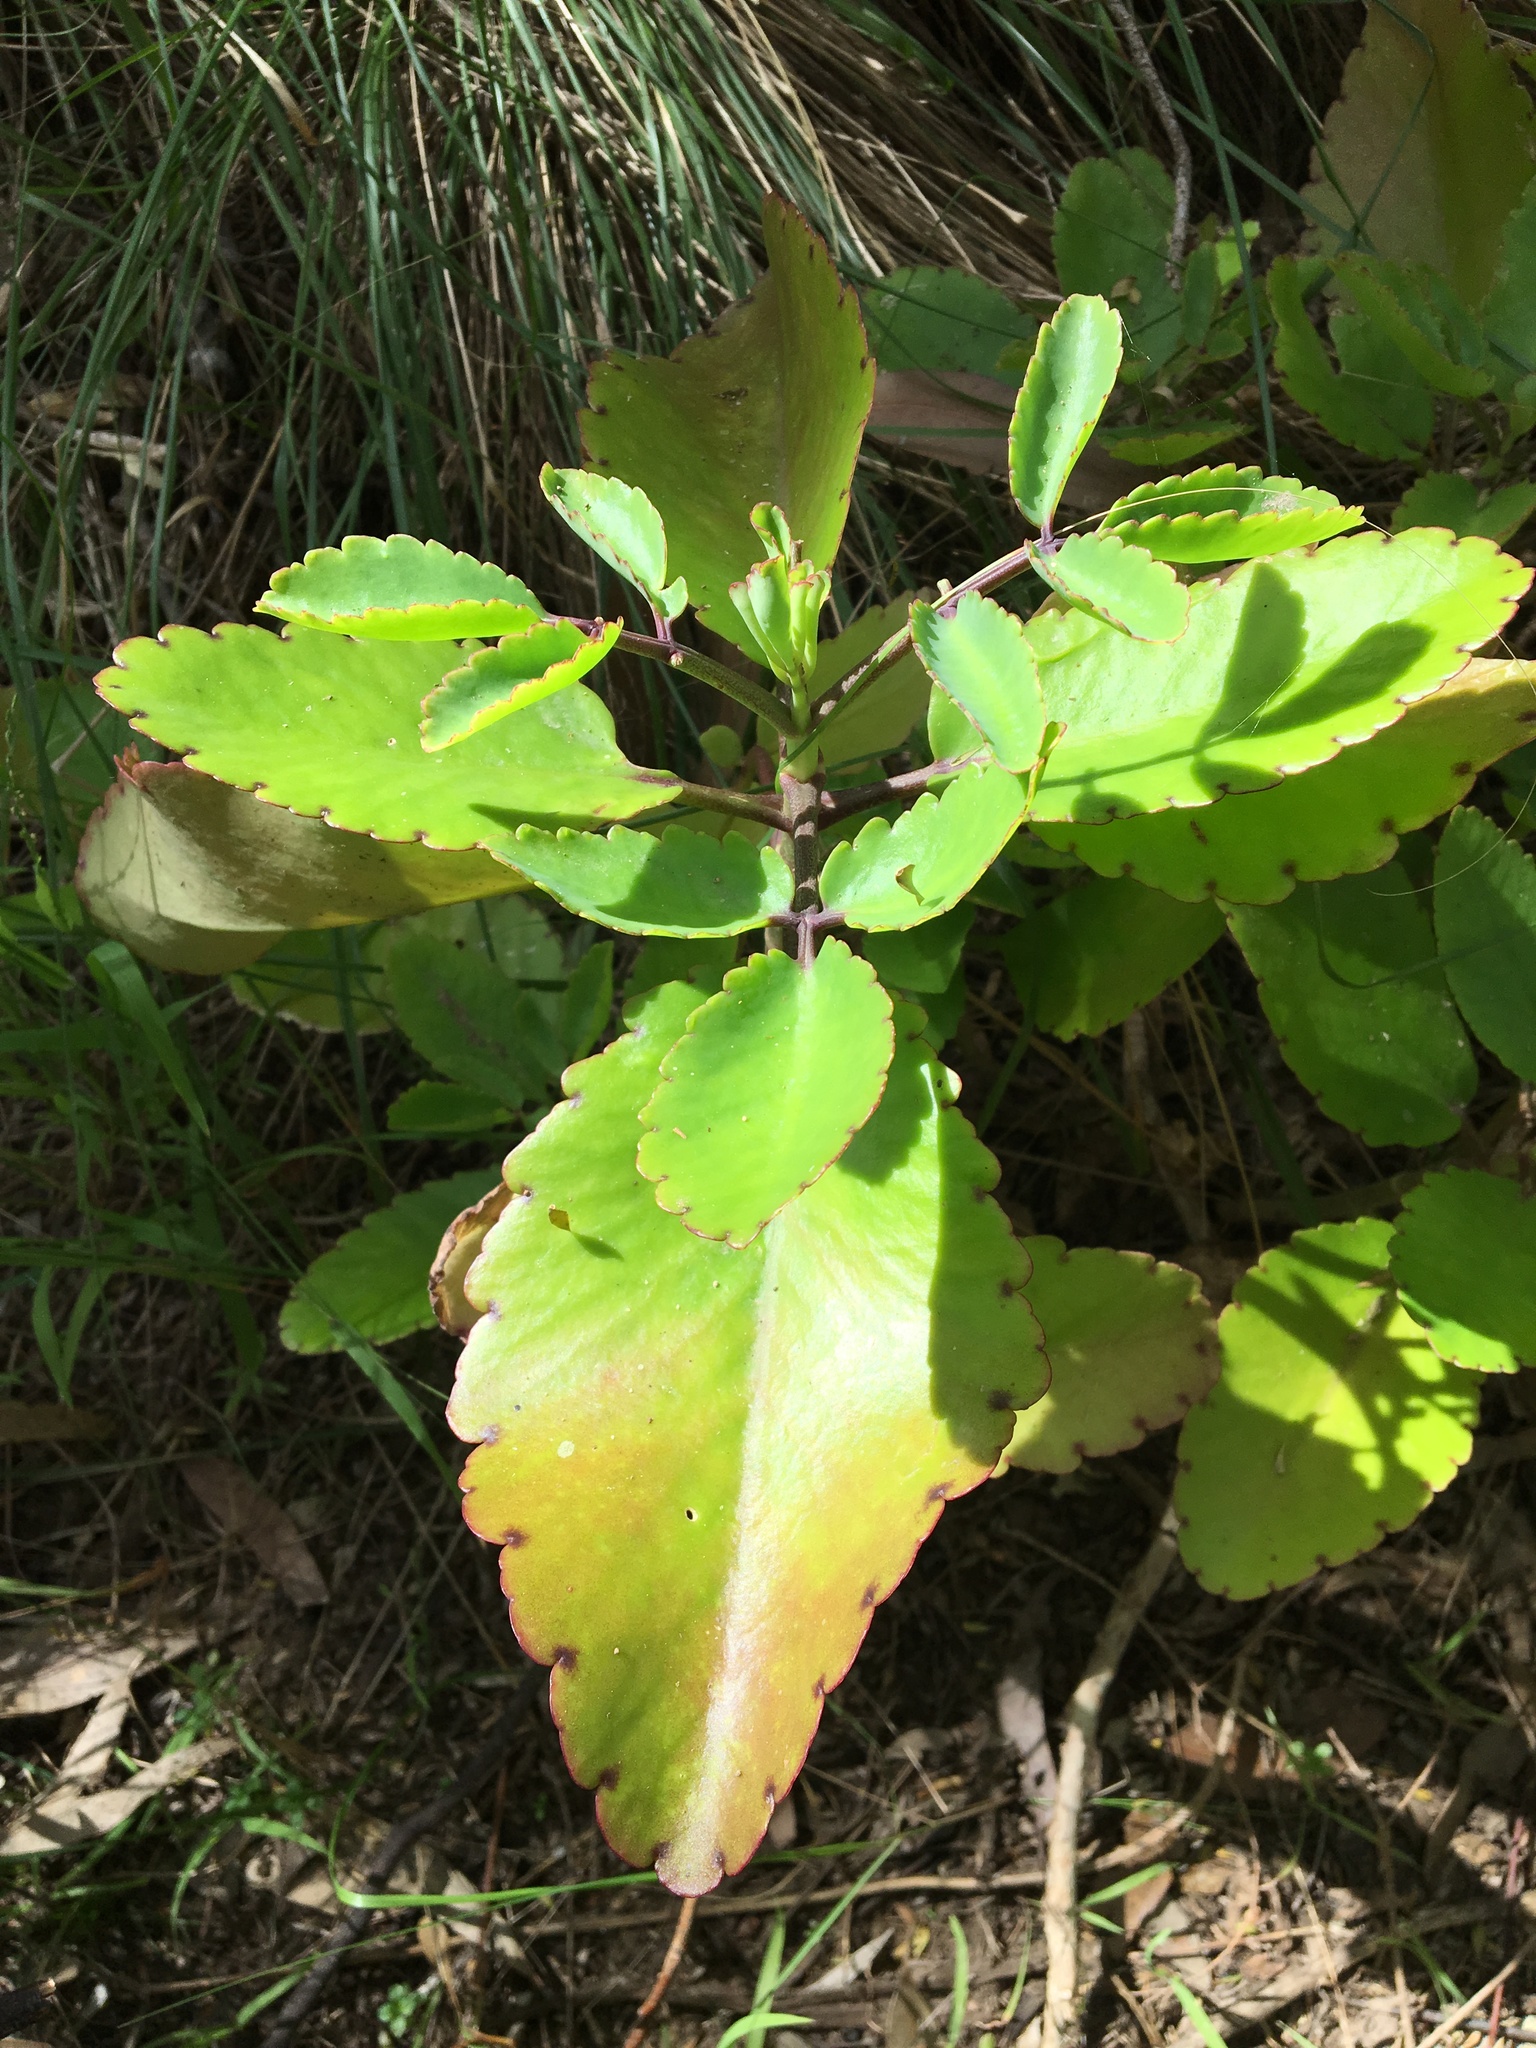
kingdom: Plantae
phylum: Tracheophyta
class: Magnoliopsida
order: Saxifragales
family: Crassulaceae
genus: Kalanchoe
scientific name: Kalanchoe pinnata
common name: Cathedral bells
